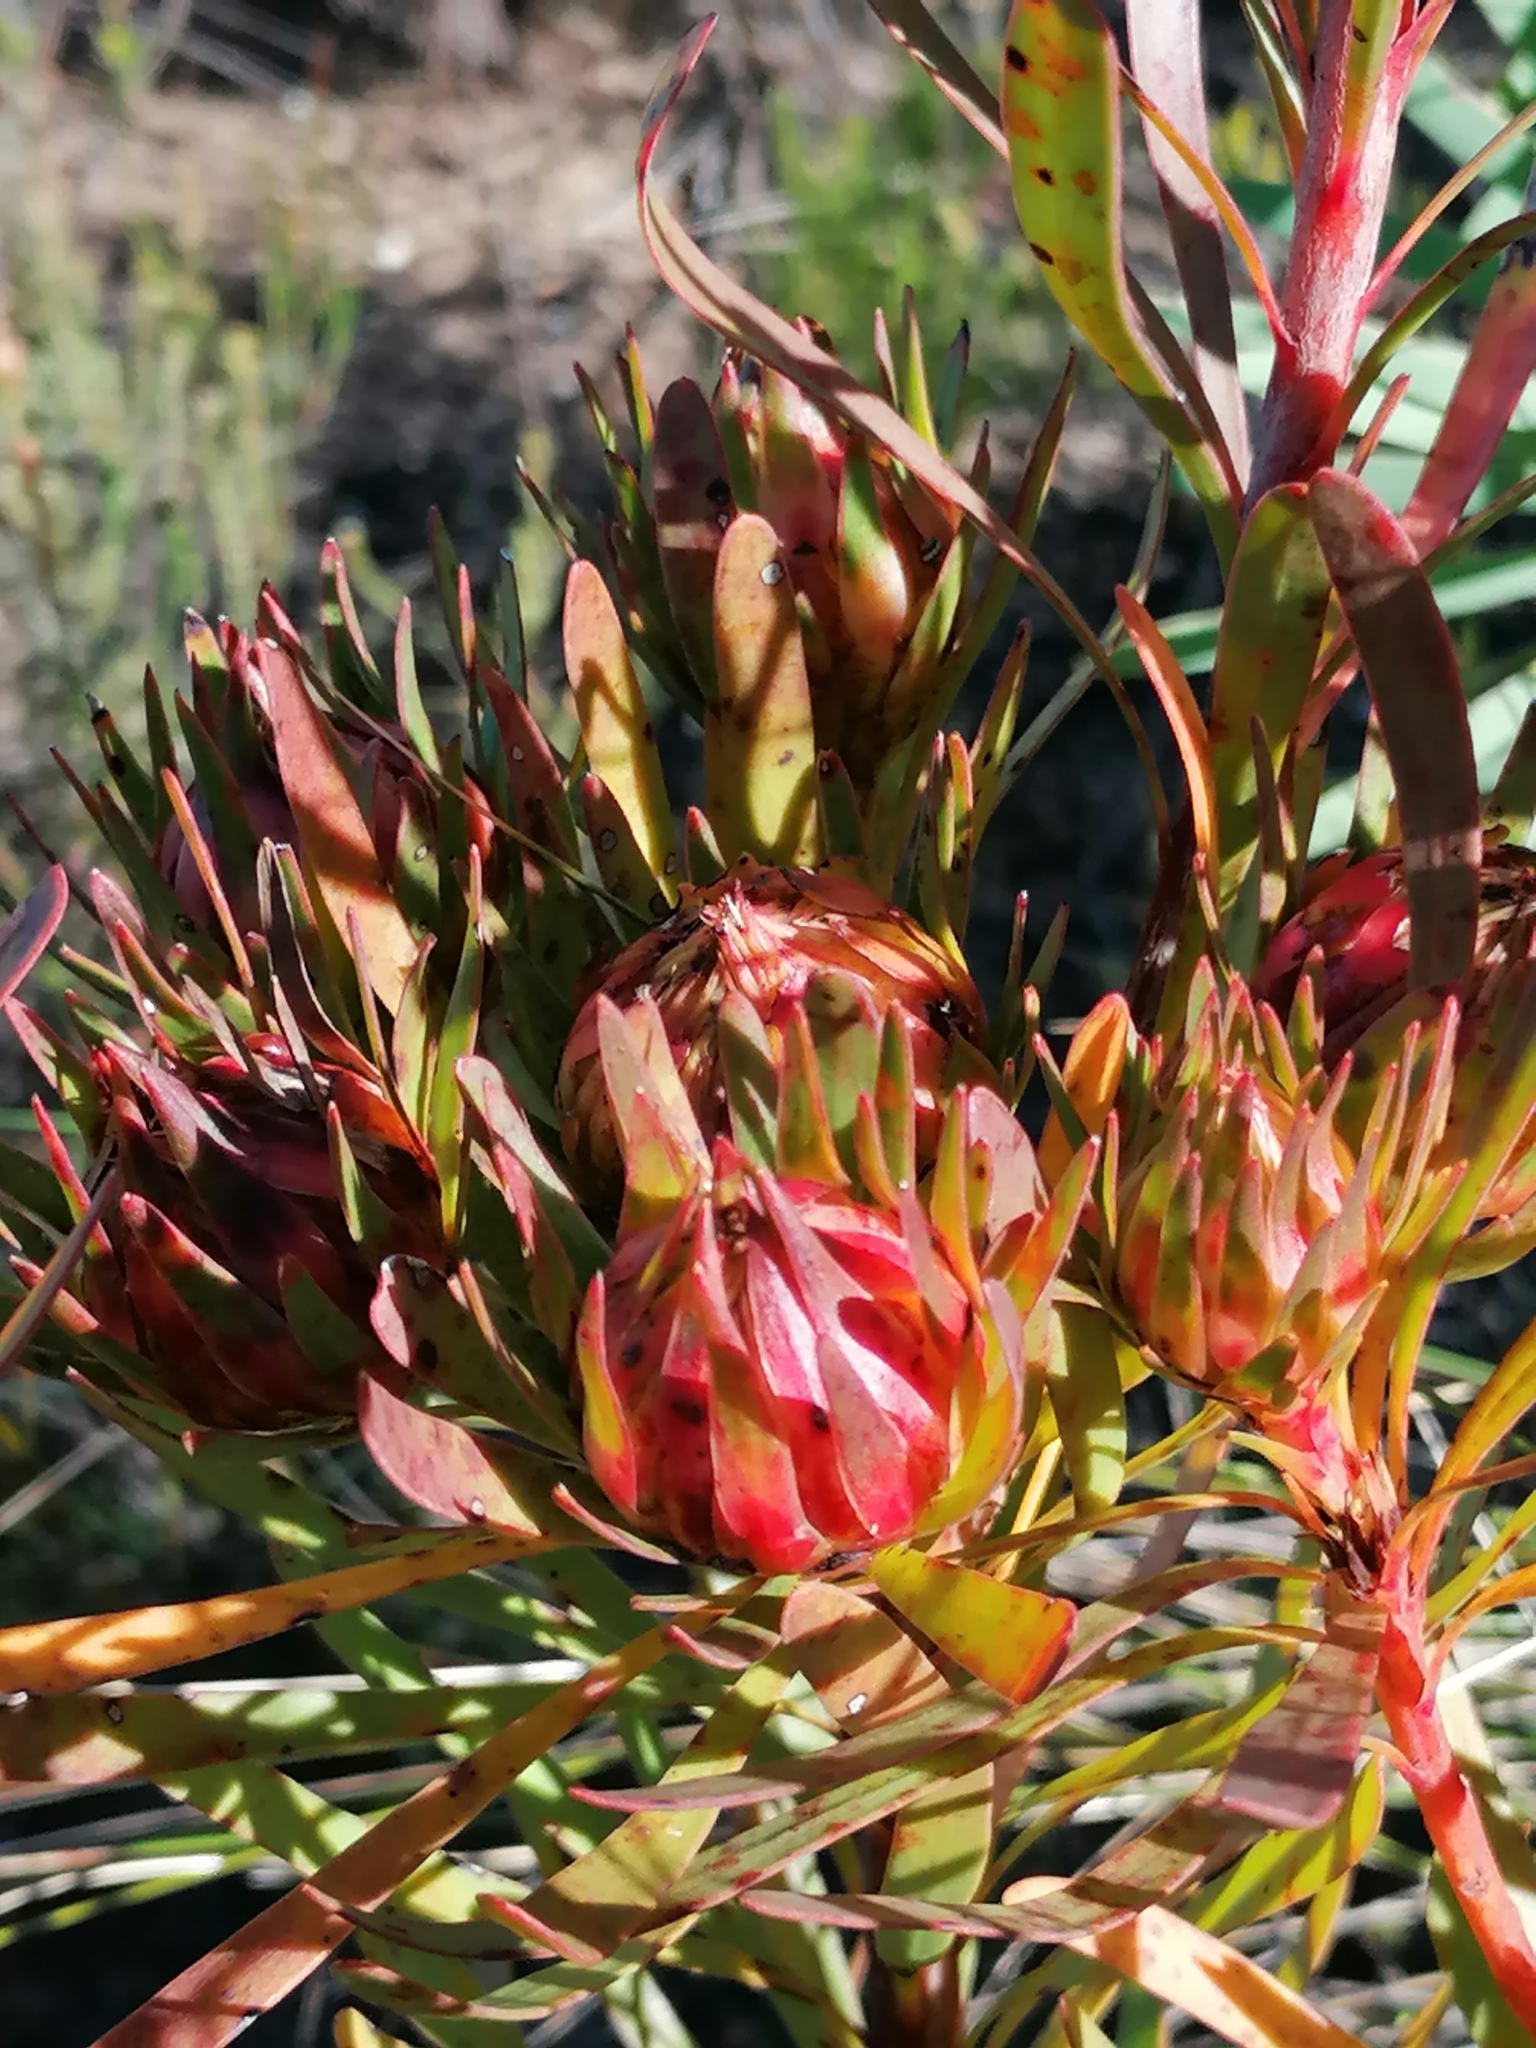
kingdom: Plantae
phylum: Tracheophyta
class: Magnoliopsida
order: Proteales
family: Proteaceae
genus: Aulax
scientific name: Aulax umbellata
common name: Broad-leaf featherbush
